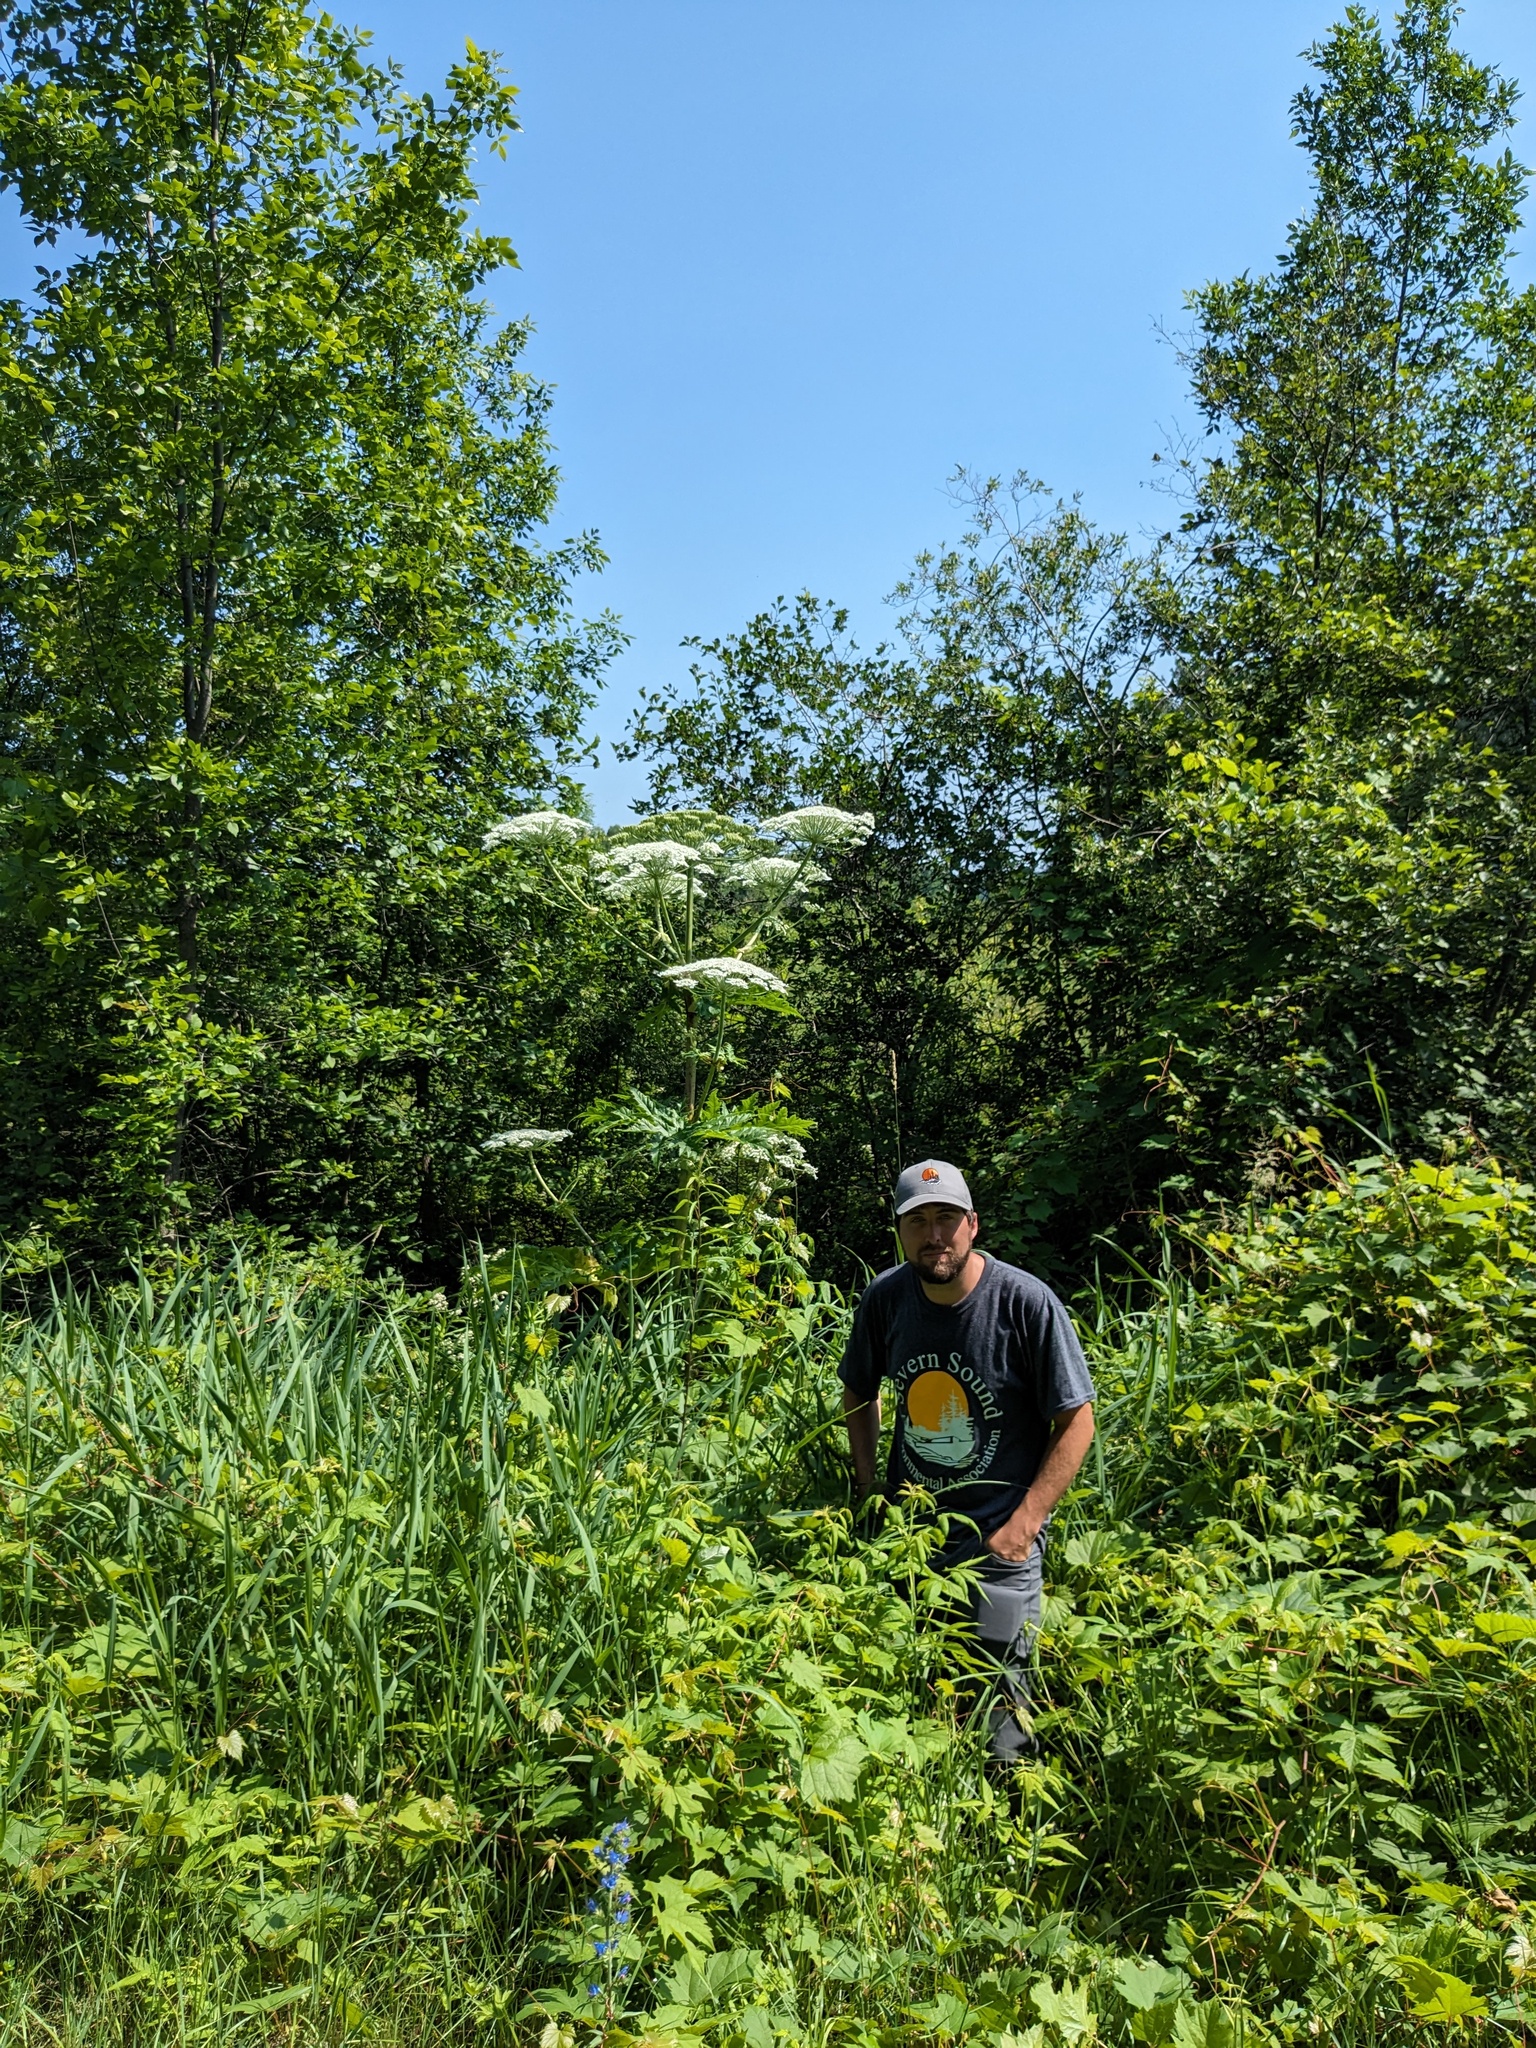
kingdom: Plantae
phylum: Tracheophyta
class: Magnoliopsida
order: Apiales
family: Apiaceae
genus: Heracleum
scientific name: Heracleum mantegazzianum
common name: Giant hogweed
